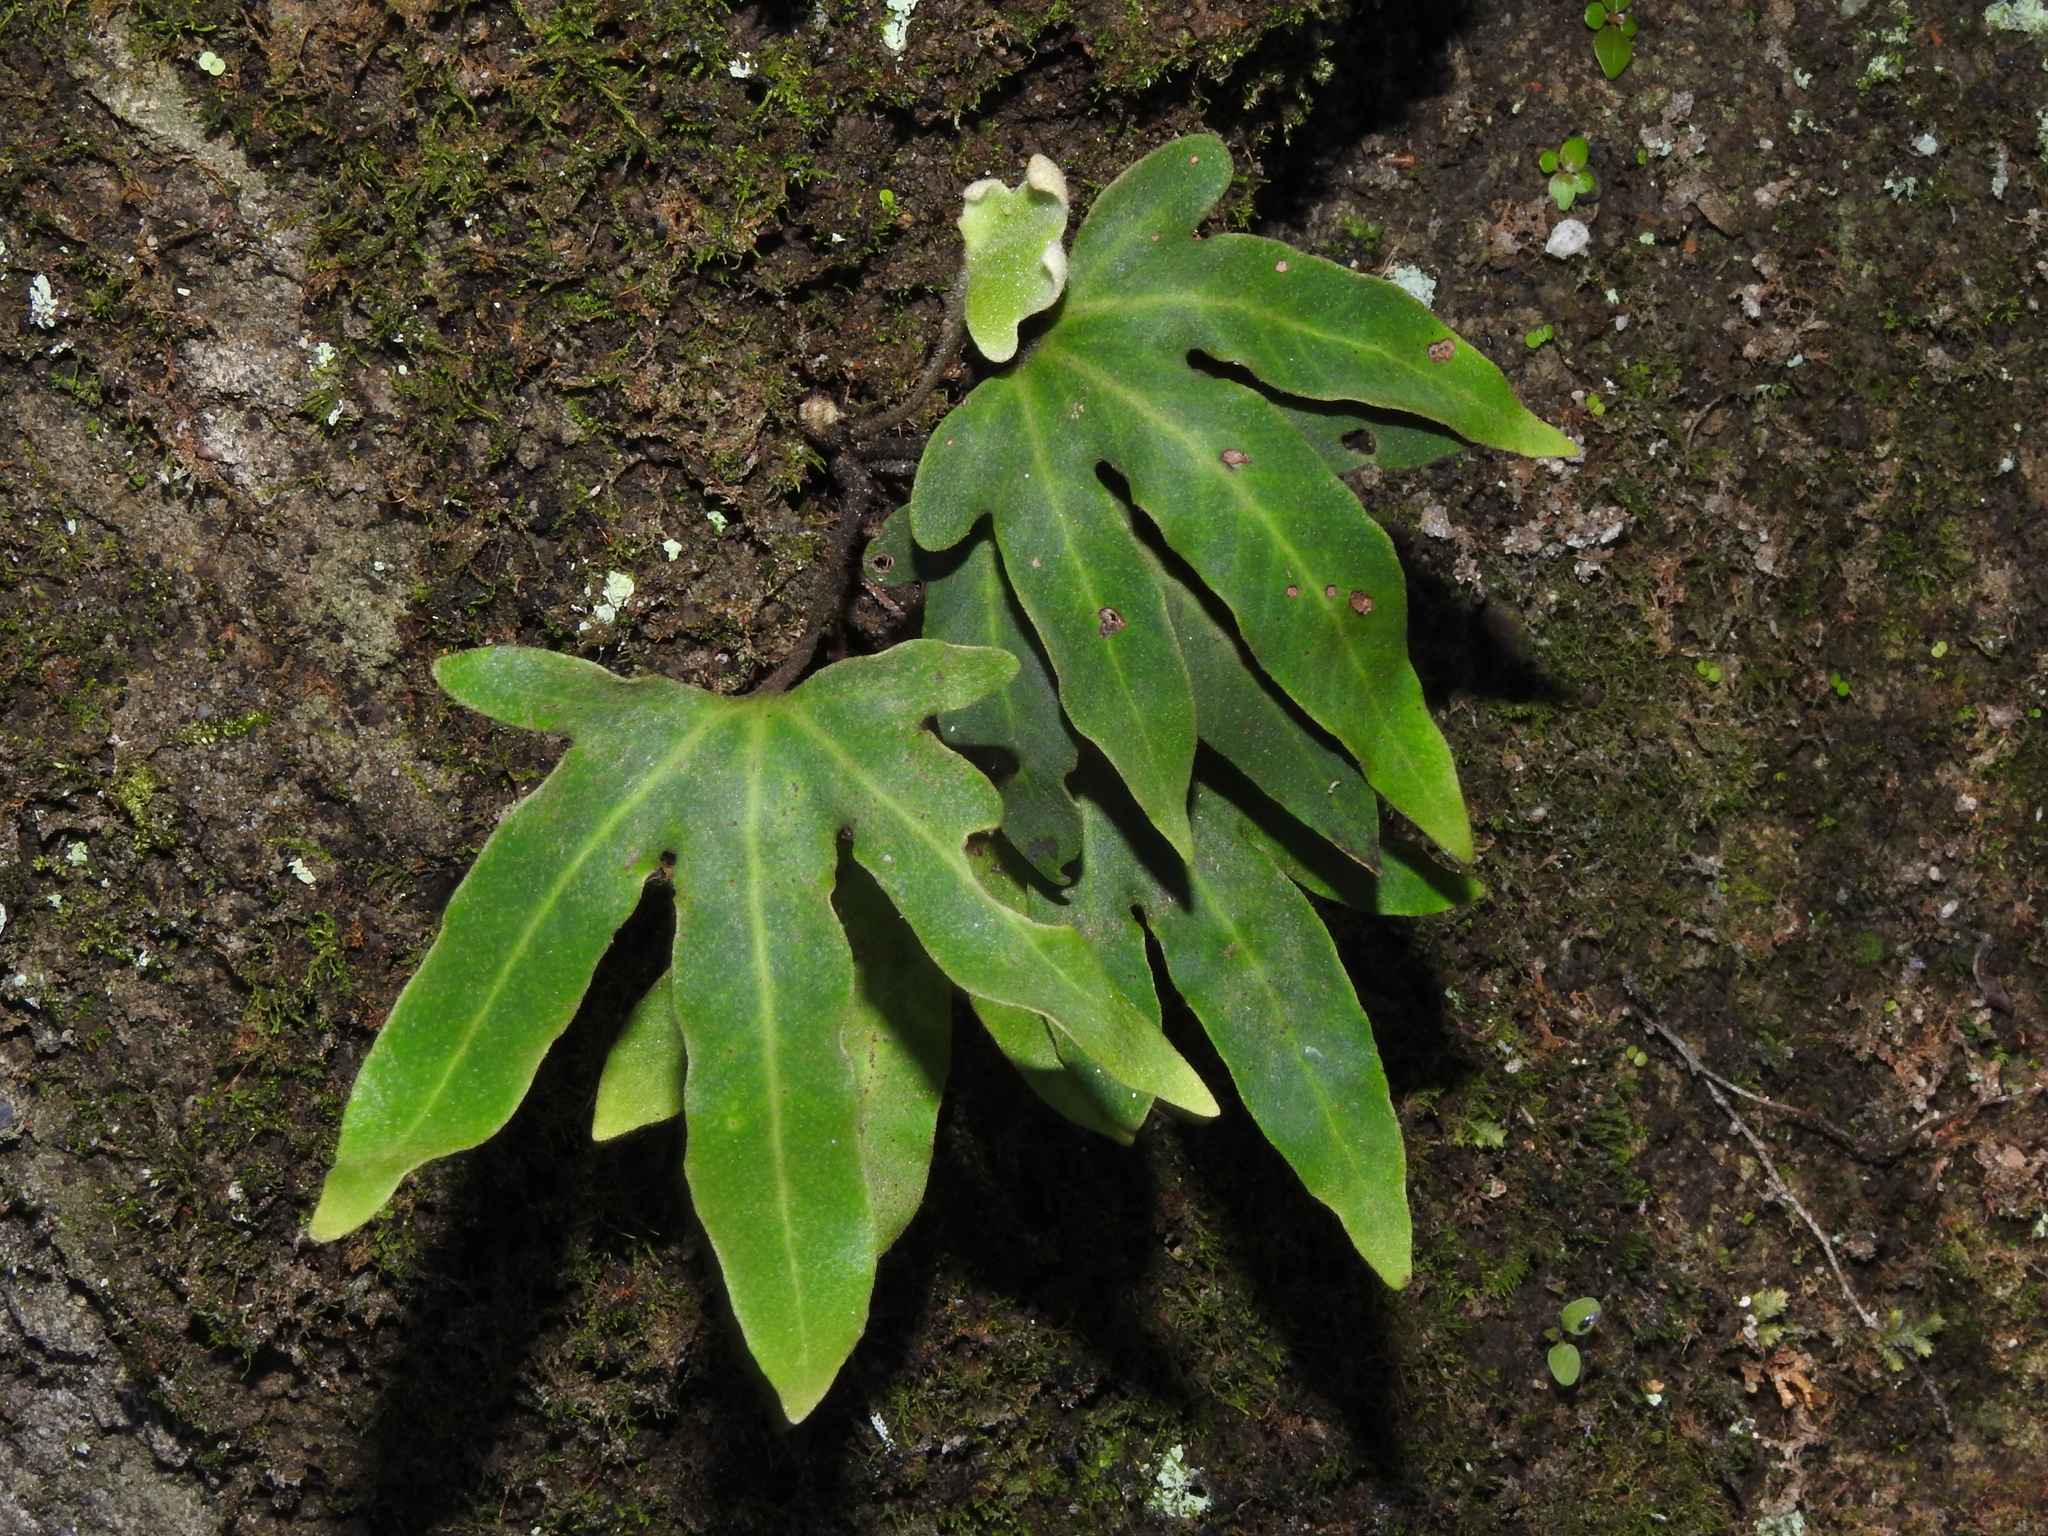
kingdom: Plantae
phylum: Tracheophyta
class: Polypodiopsida
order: Polypodiales
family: Polypodiaceae
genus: Pyrrosia
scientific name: Pyrrosia polydactyla
